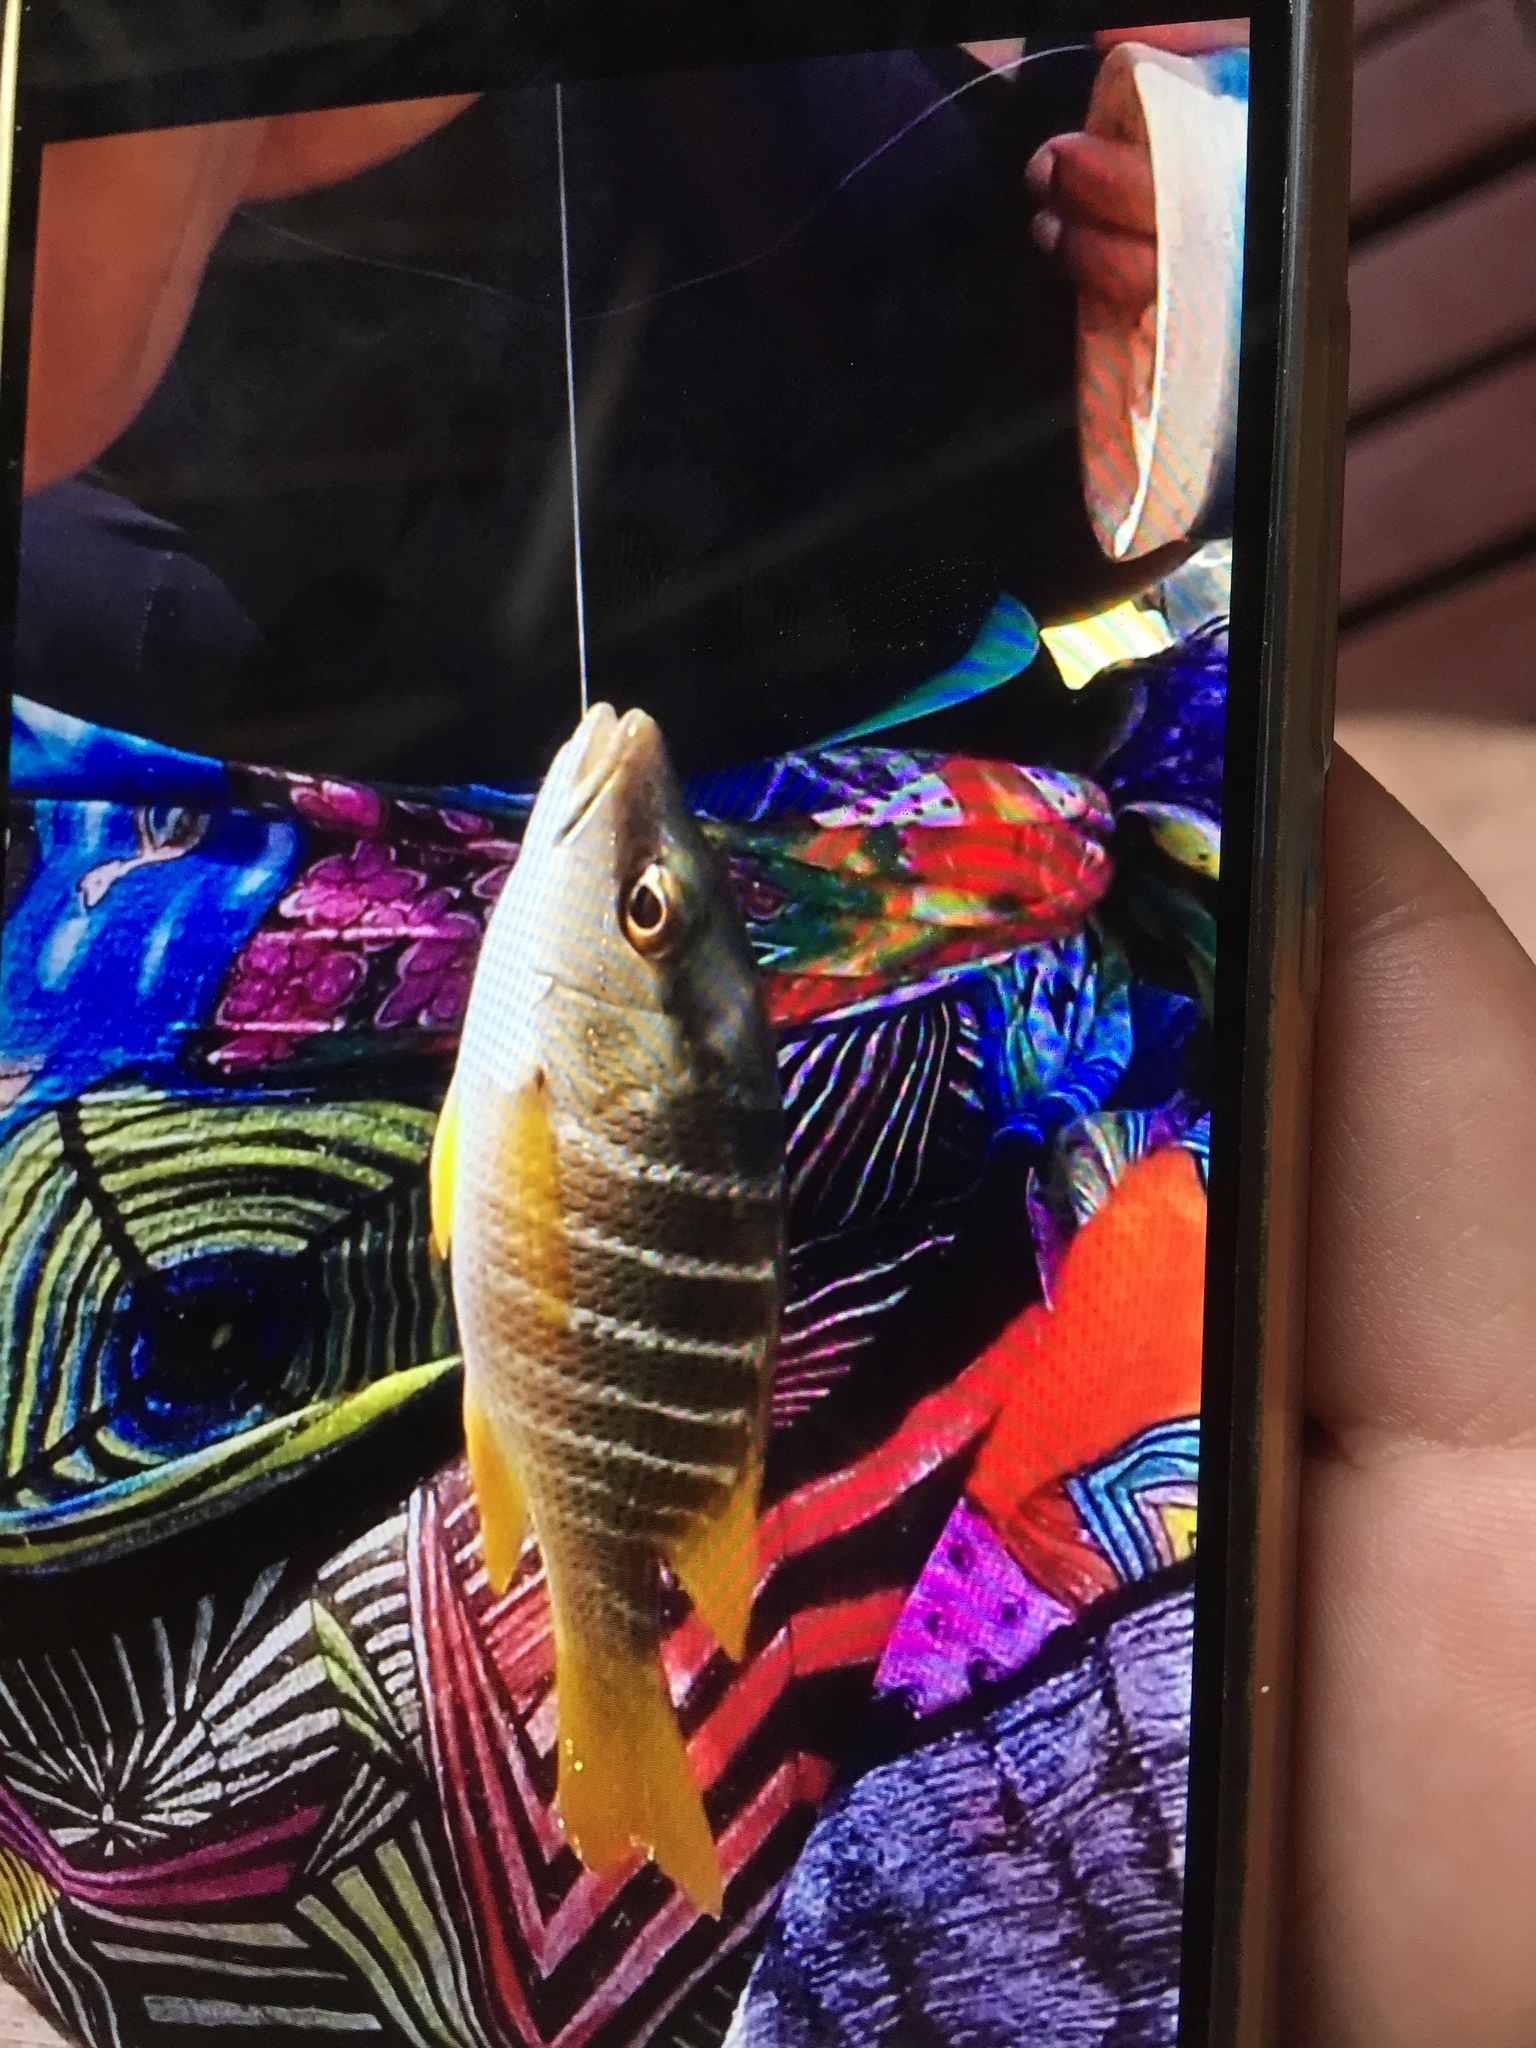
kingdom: Animalia
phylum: Chordata
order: Perciformes
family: Lutjanidae
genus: Lutjanus
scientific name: Lutjanus apodus
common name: Schoolmaster
